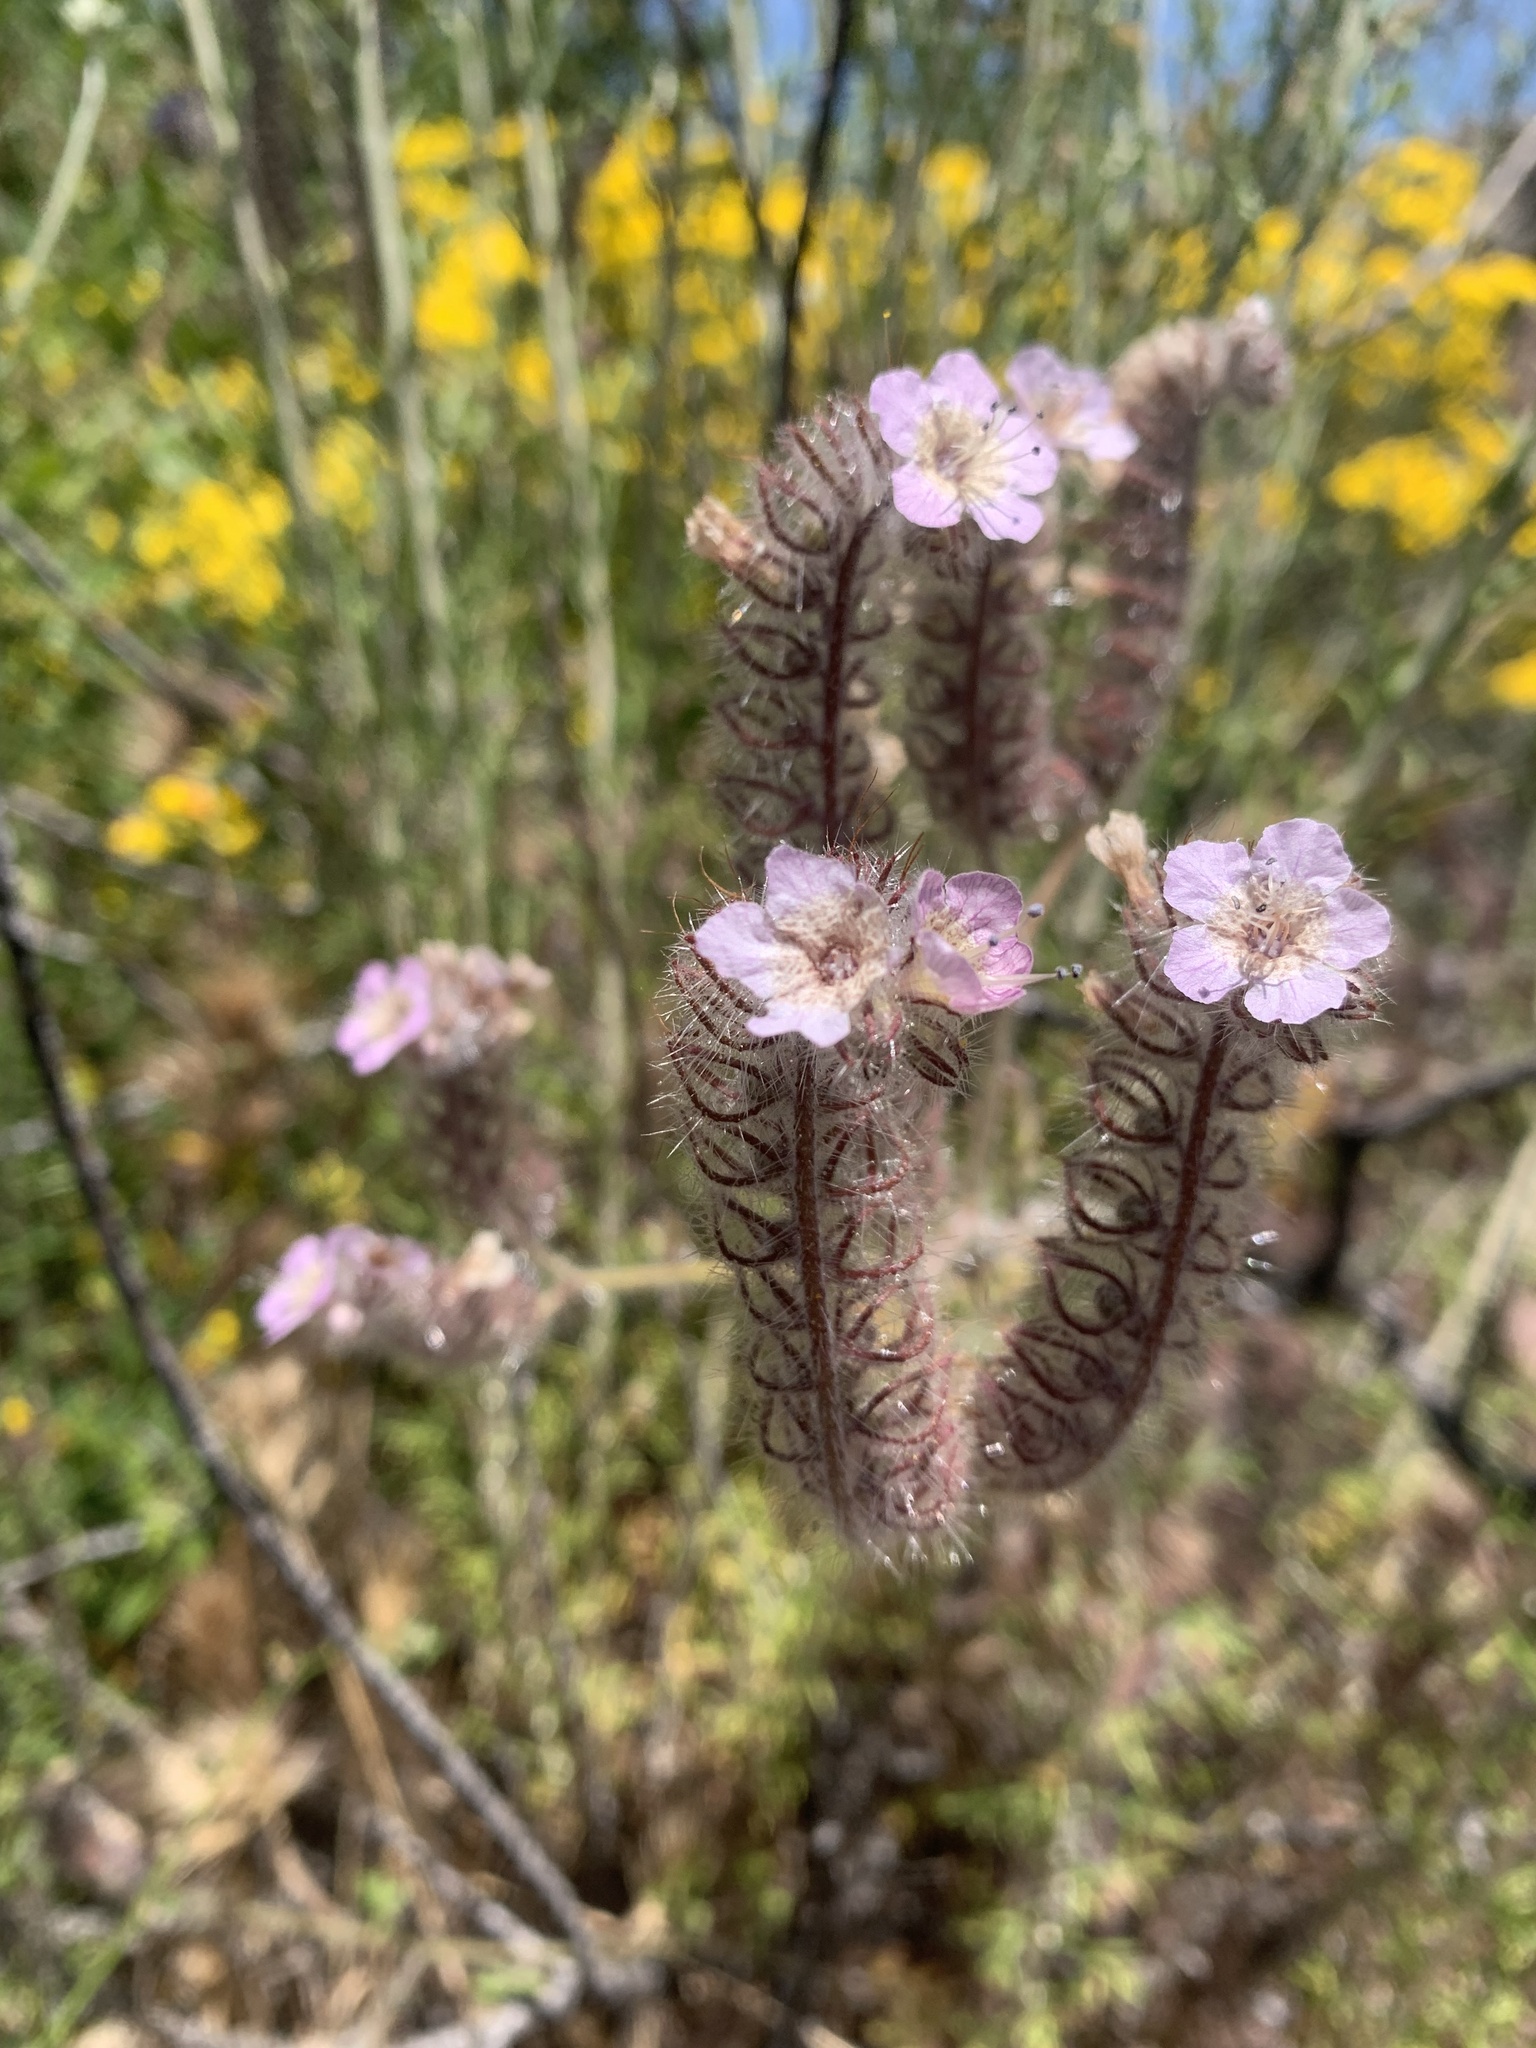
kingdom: Plantae
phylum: Tracheophyta
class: Magnoliopsida
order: Boraginales
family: Hydrophyllaceae
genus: Phacelia
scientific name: Phacelia cicutaria
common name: Caterpillar phacelia
